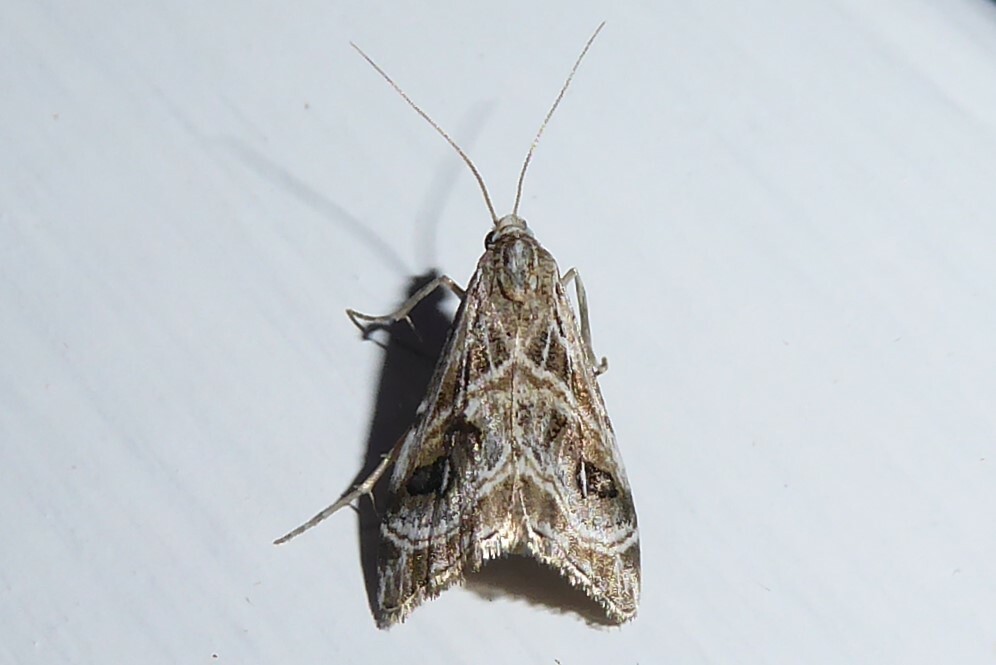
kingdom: Animalia
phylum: Arthropoda
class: Insecta
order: Lepidoptera
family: Crambidae
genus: Gadira
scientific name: Gadira acerella
